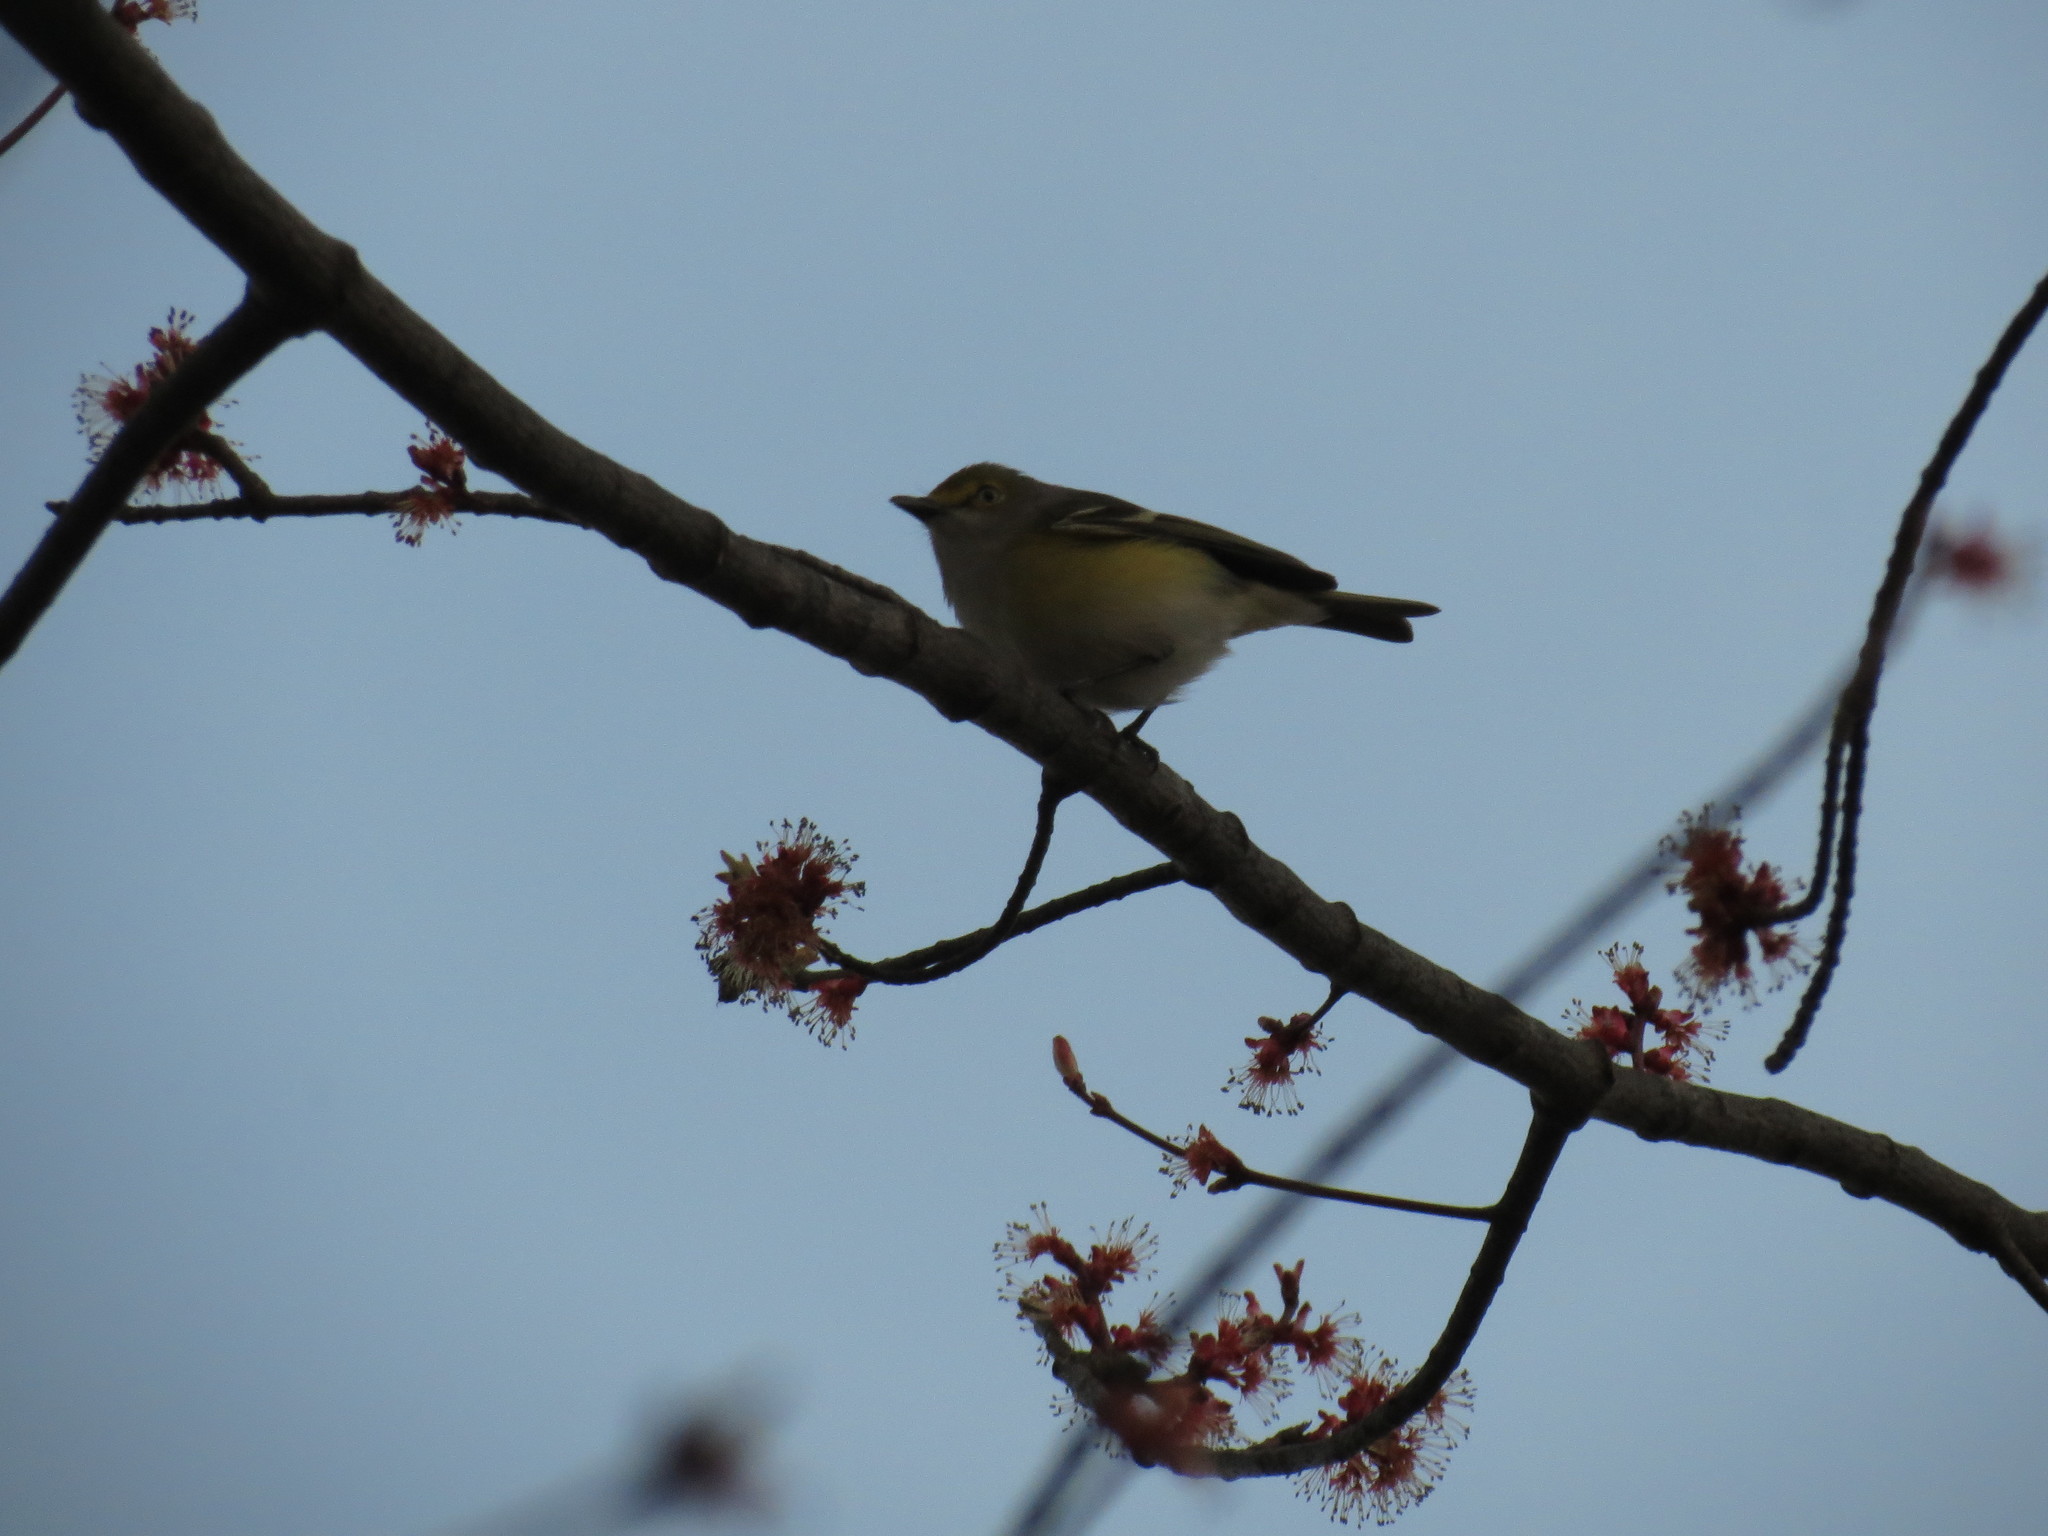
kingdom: Animalia
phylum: Chordata
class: Aves
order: Passeriformes
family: Vireonidae
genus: Vireo
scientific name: Vireo griseus
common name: White-eyed vireo
